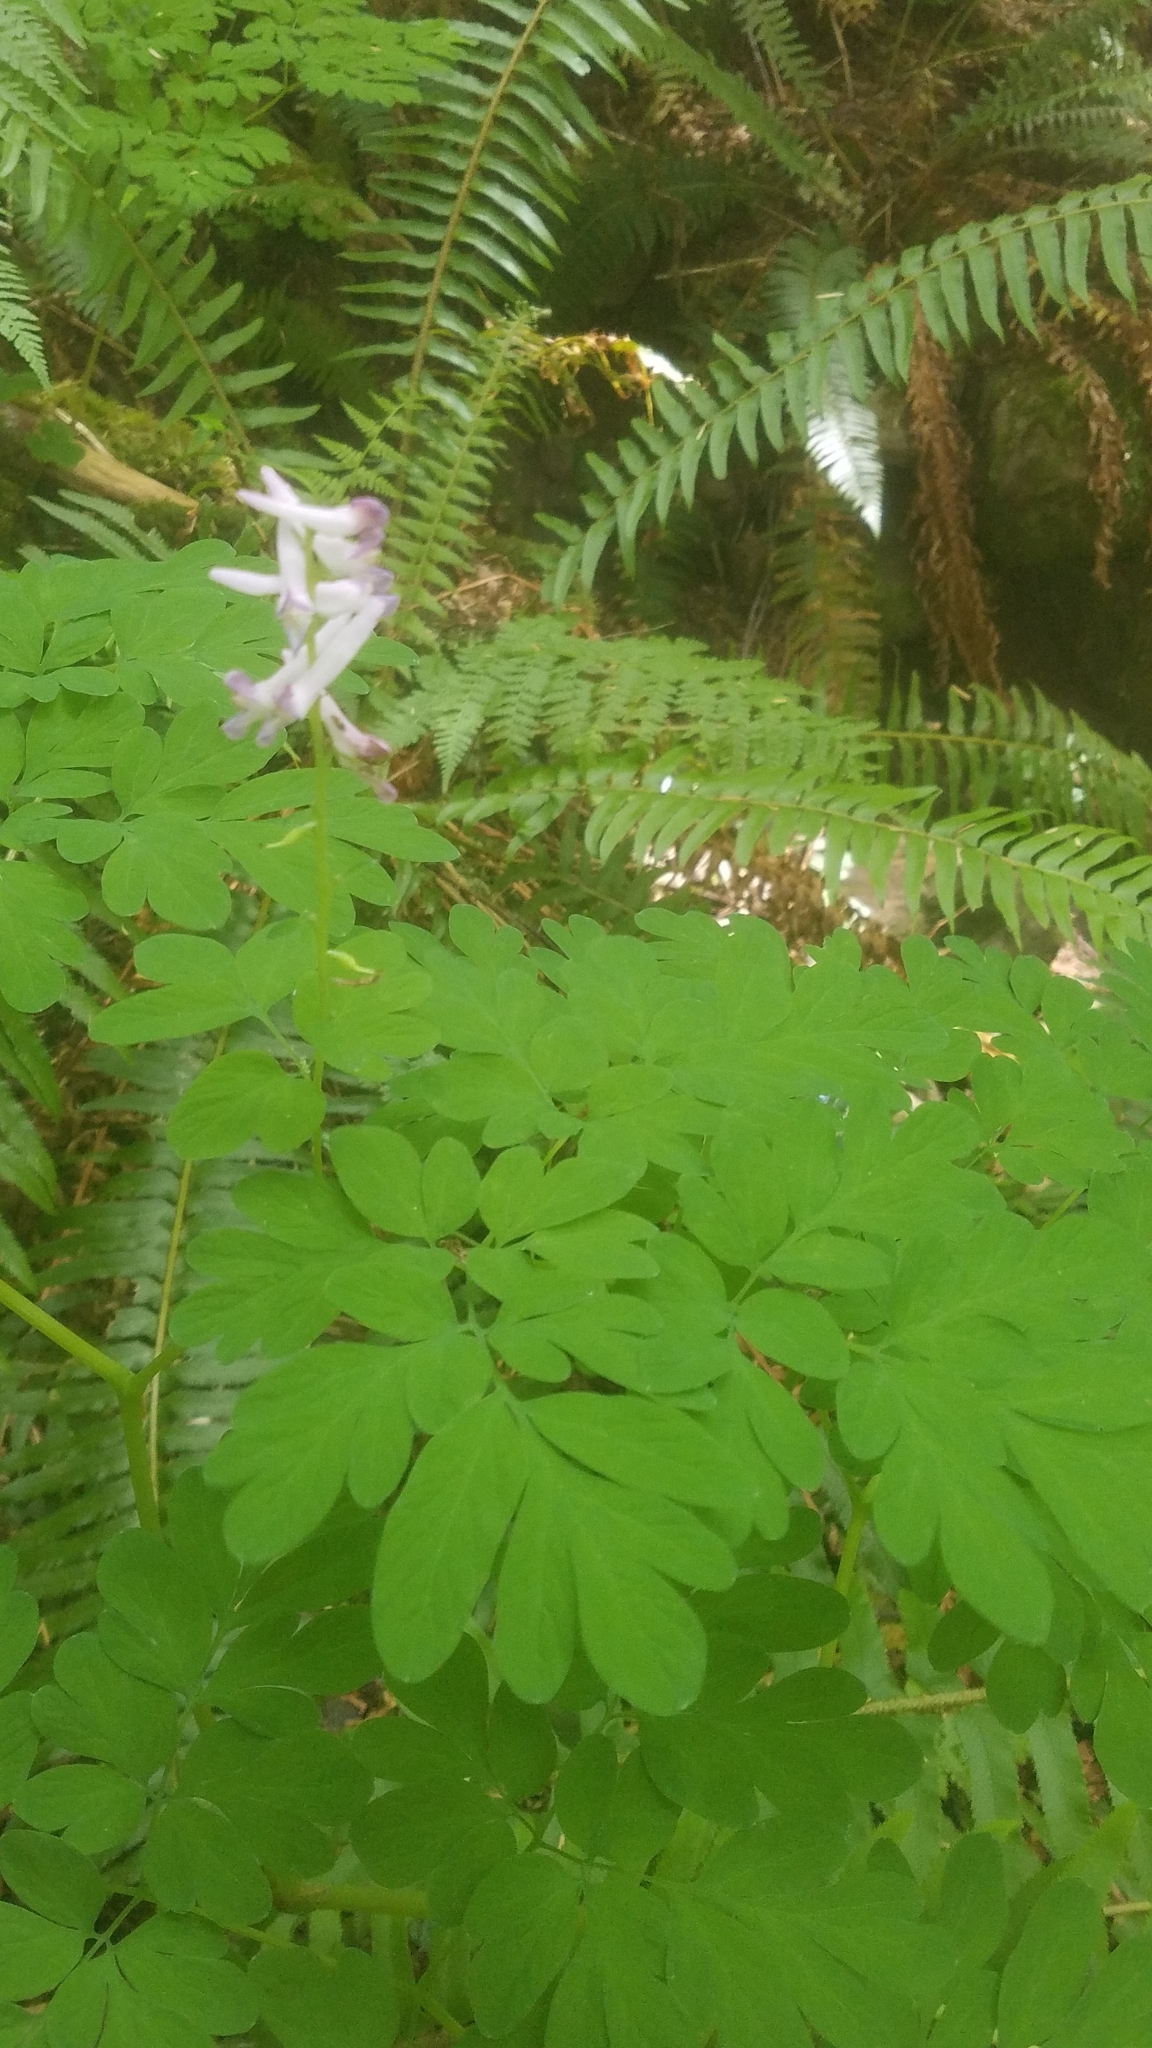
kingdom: Plantae
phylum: Tracheophyta
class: Magnoliopsida
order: Ranunculales
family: Papaveraceae
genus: Corydalis
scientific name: Corydalis scouleri
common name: Scouler's corydalis
